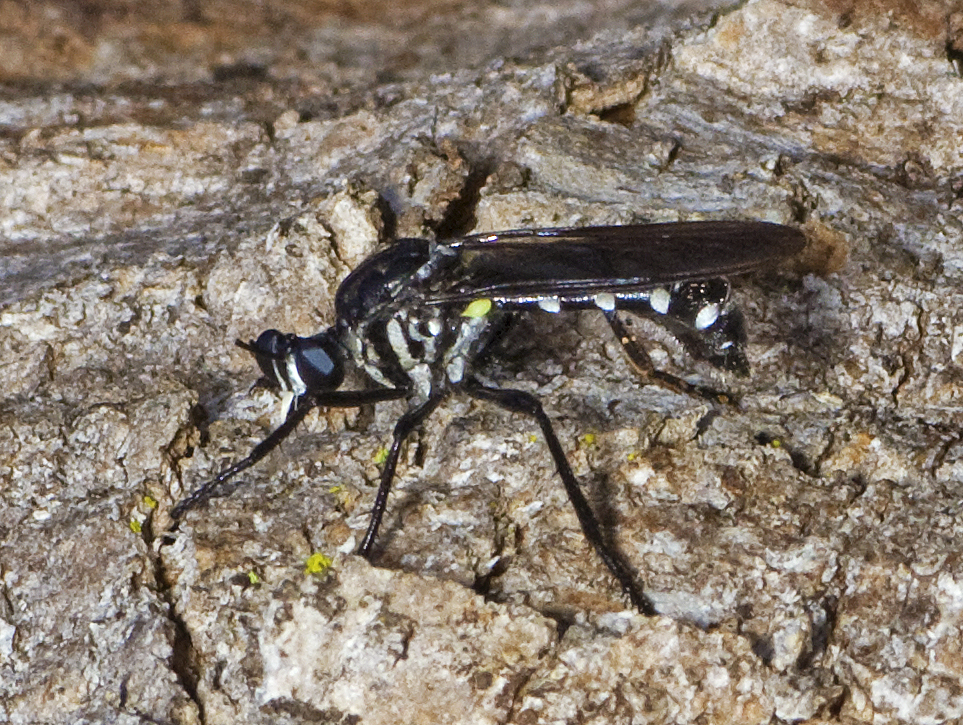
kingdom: Animalia
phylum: Arthropoda
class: Insecta
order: Diptera
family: Asilidae
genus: Chryseutria
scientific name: Chryseutria nigrina
